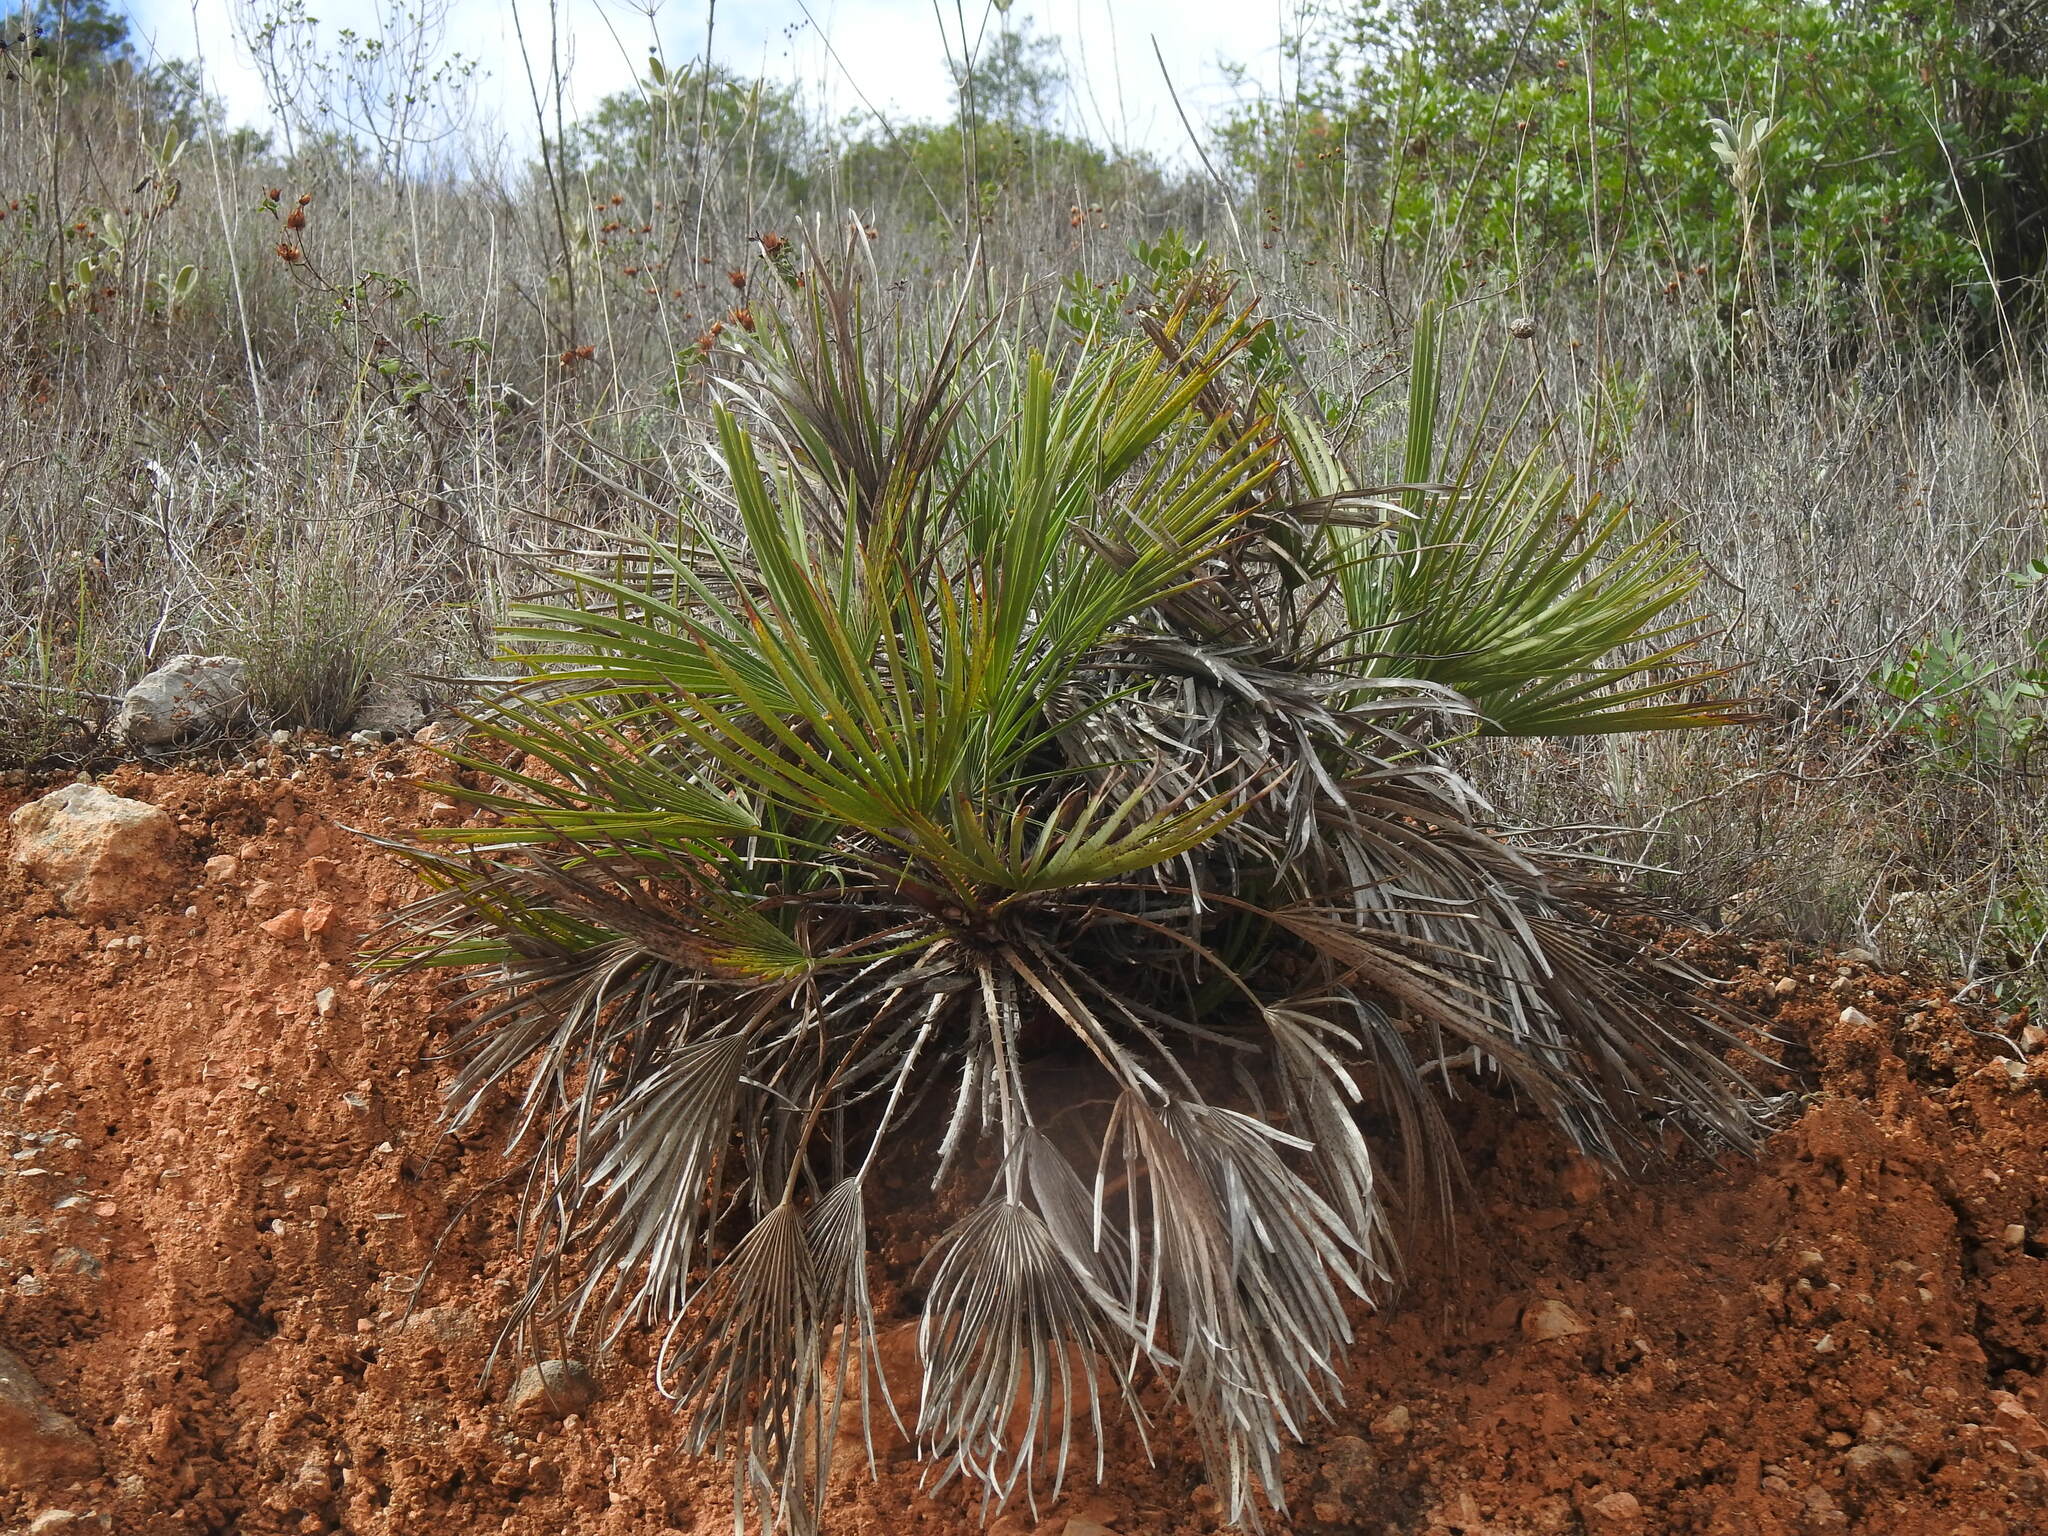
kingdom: Plantae
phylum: Tracheophyta
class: Liliopsida
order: Arecales
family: Arecaceae
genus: Chamaerops
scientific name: Chamaerops humilis
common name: Dwarf fan palm
